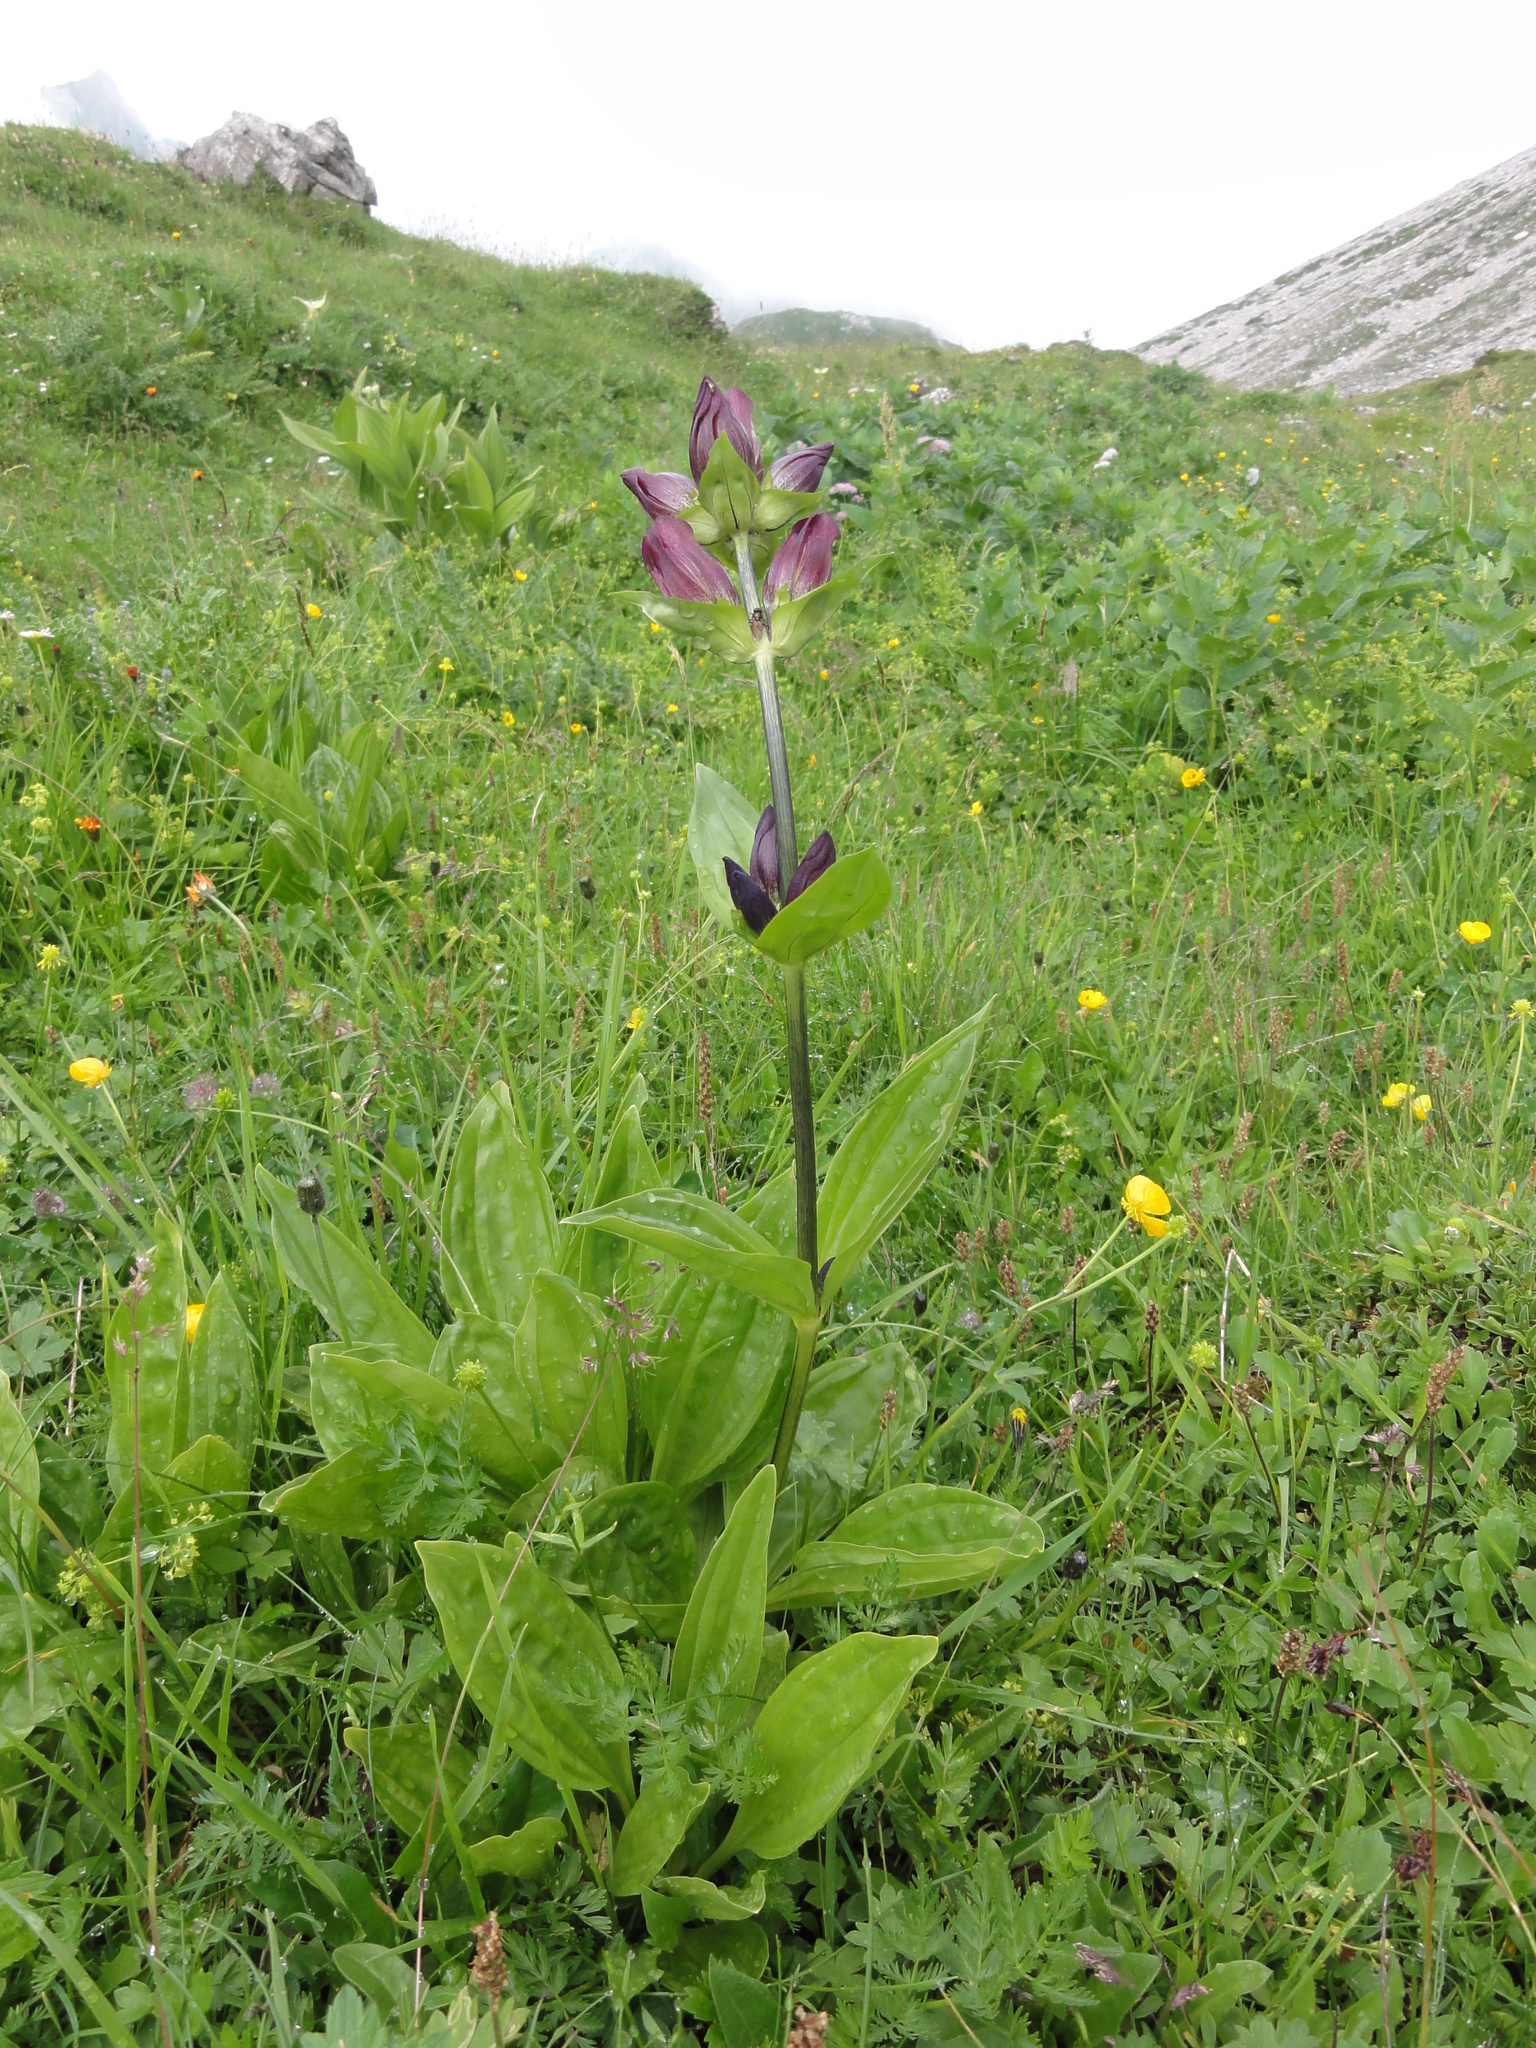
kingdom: Plantae
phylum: Tracheophyta
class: Magnoliopsida
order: Gentianales
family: Gentianaceae
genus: Gentiana
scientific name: Gentiana purpurea
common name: Purple gentian
